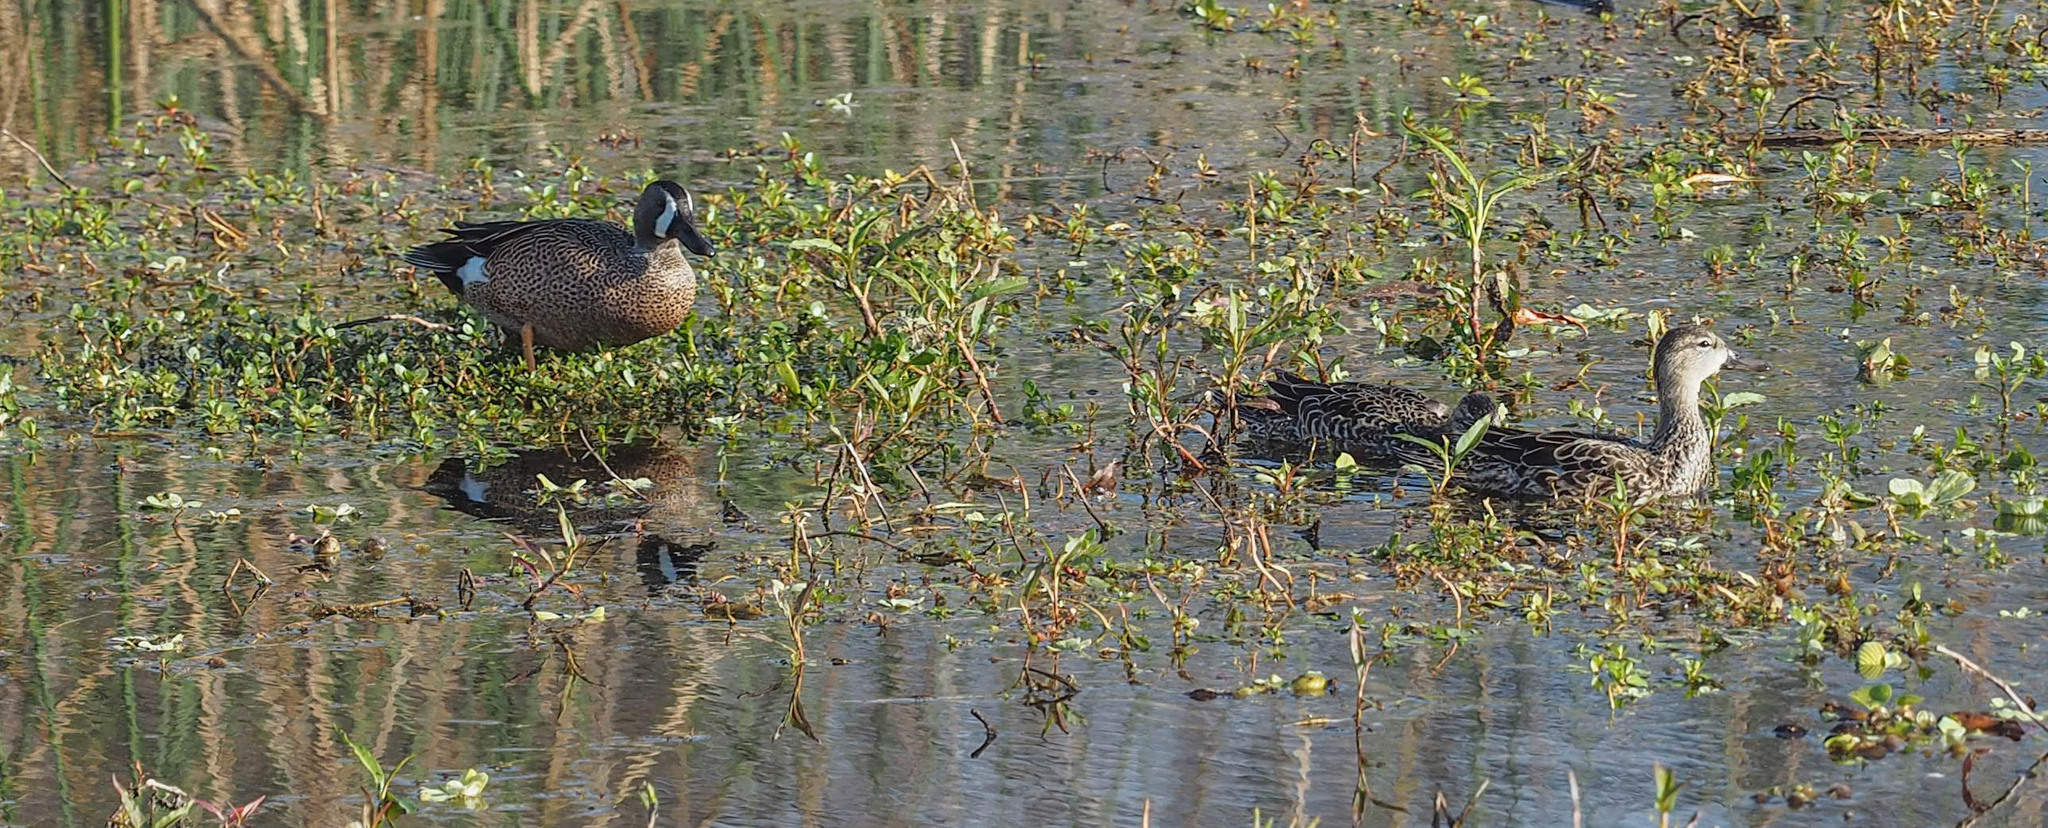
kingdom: Animalia
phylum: Chordata
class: Aves
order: Anseriformes
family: Anatidae
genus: Spatula
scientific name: Spatula discors
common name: Blue-winged teal
